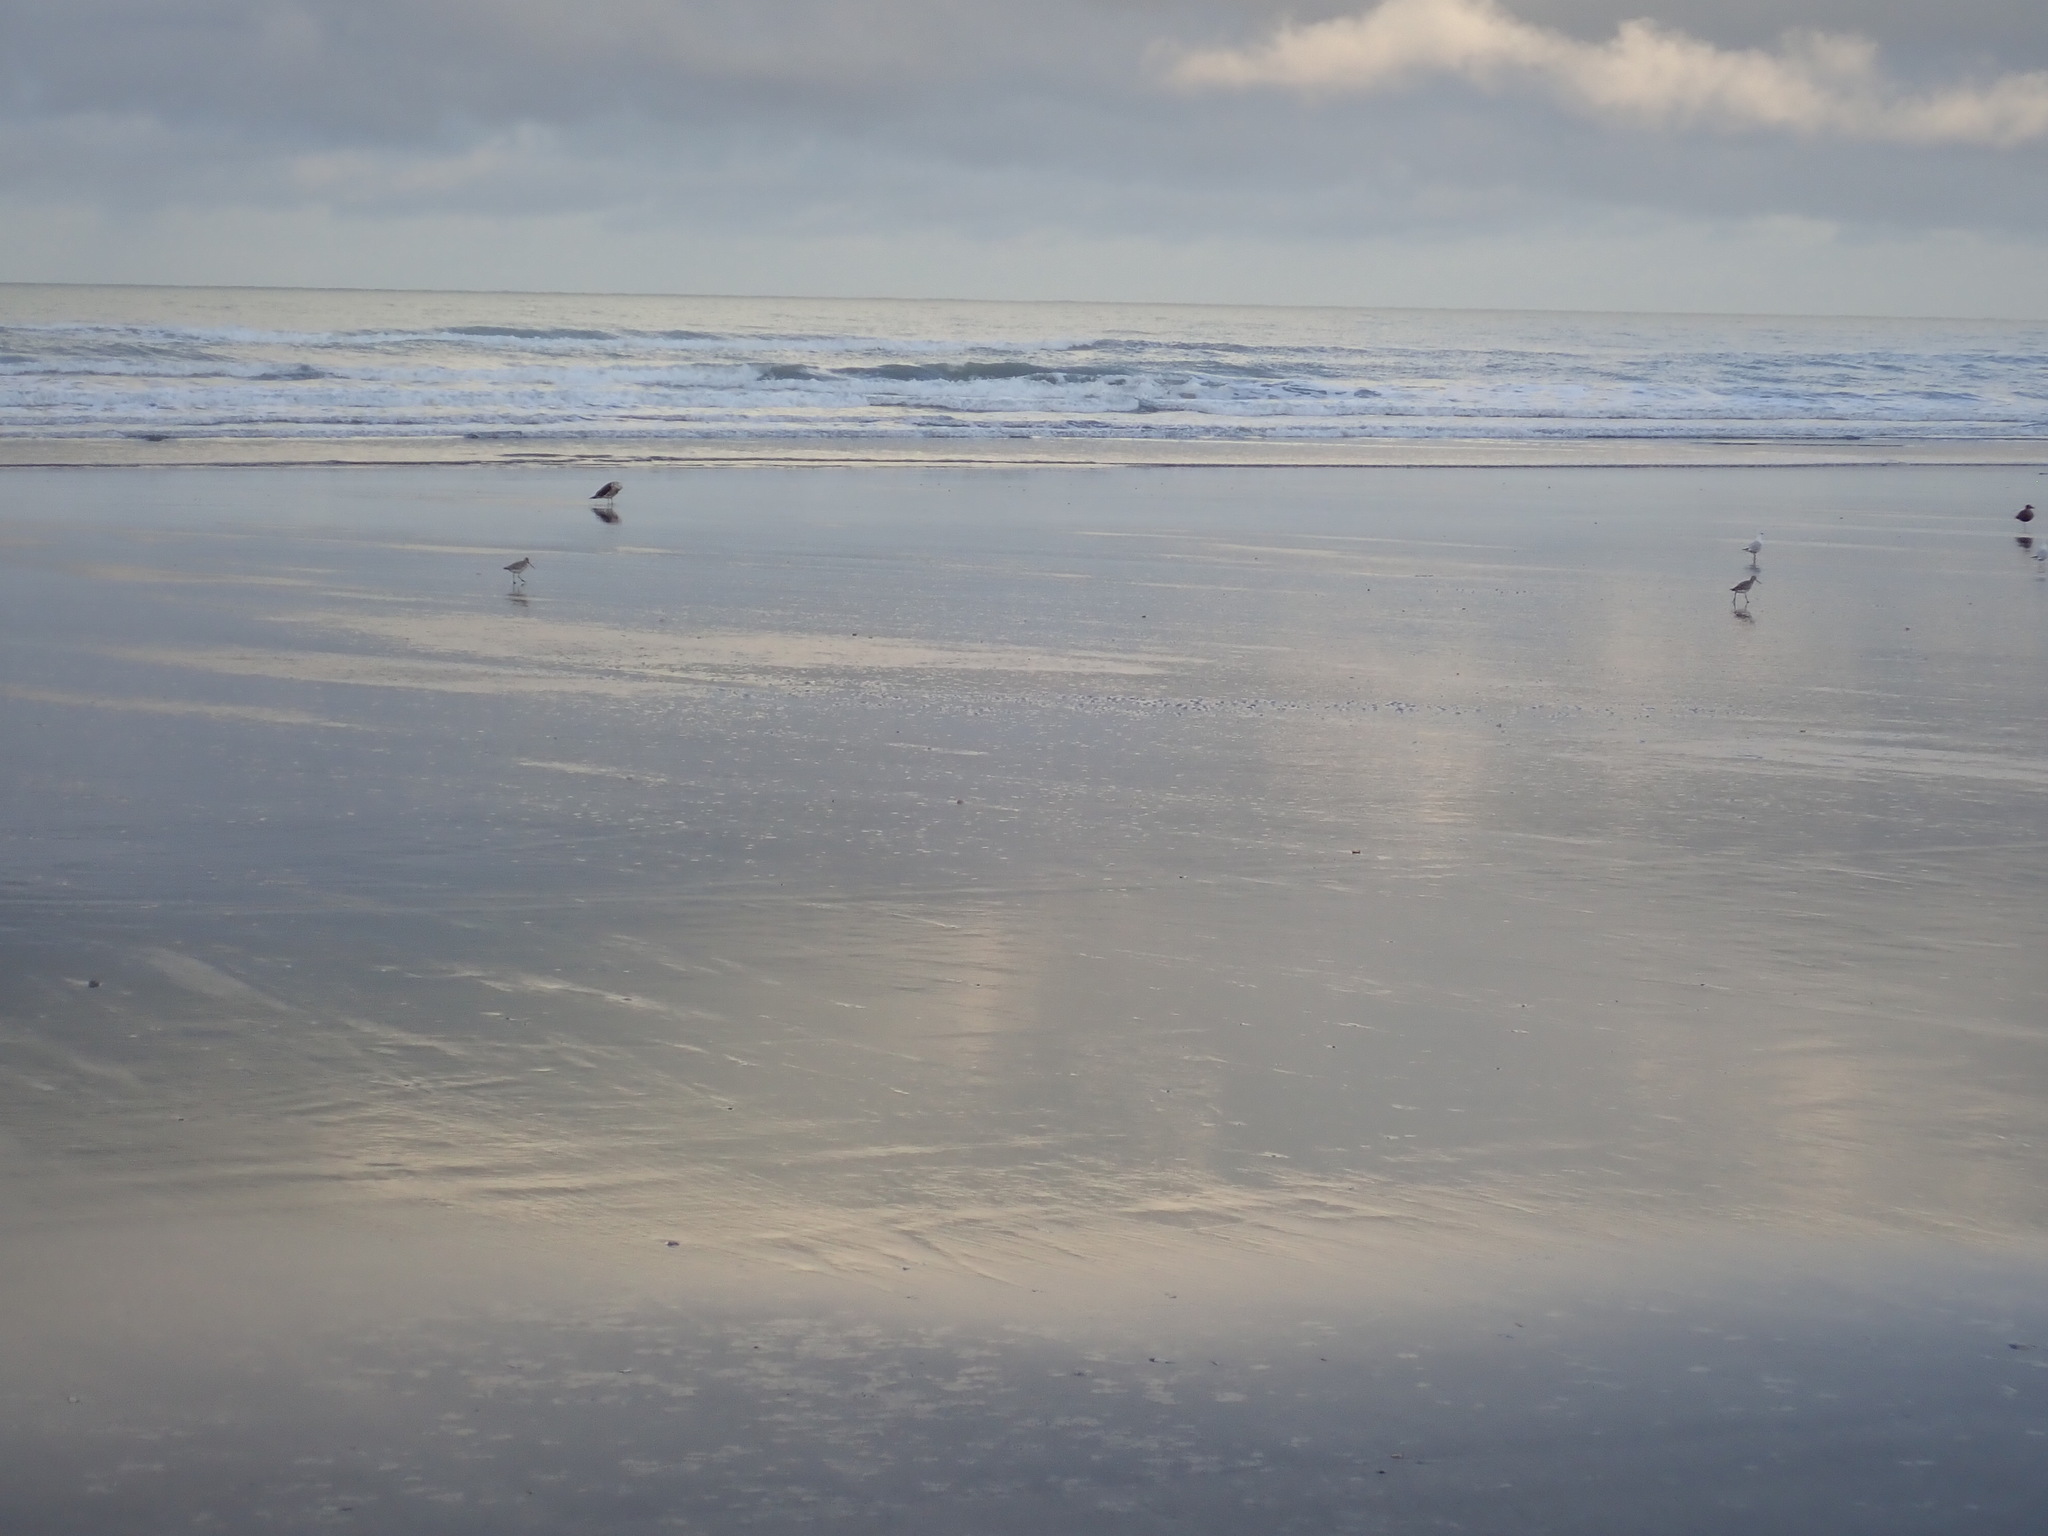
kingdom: Animalia
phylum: Chordata
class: Aves
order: Charadriiformes
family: Scolopacidae
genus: Limosa
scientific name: Limosa lapponica
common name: Bar-tailed godwit
